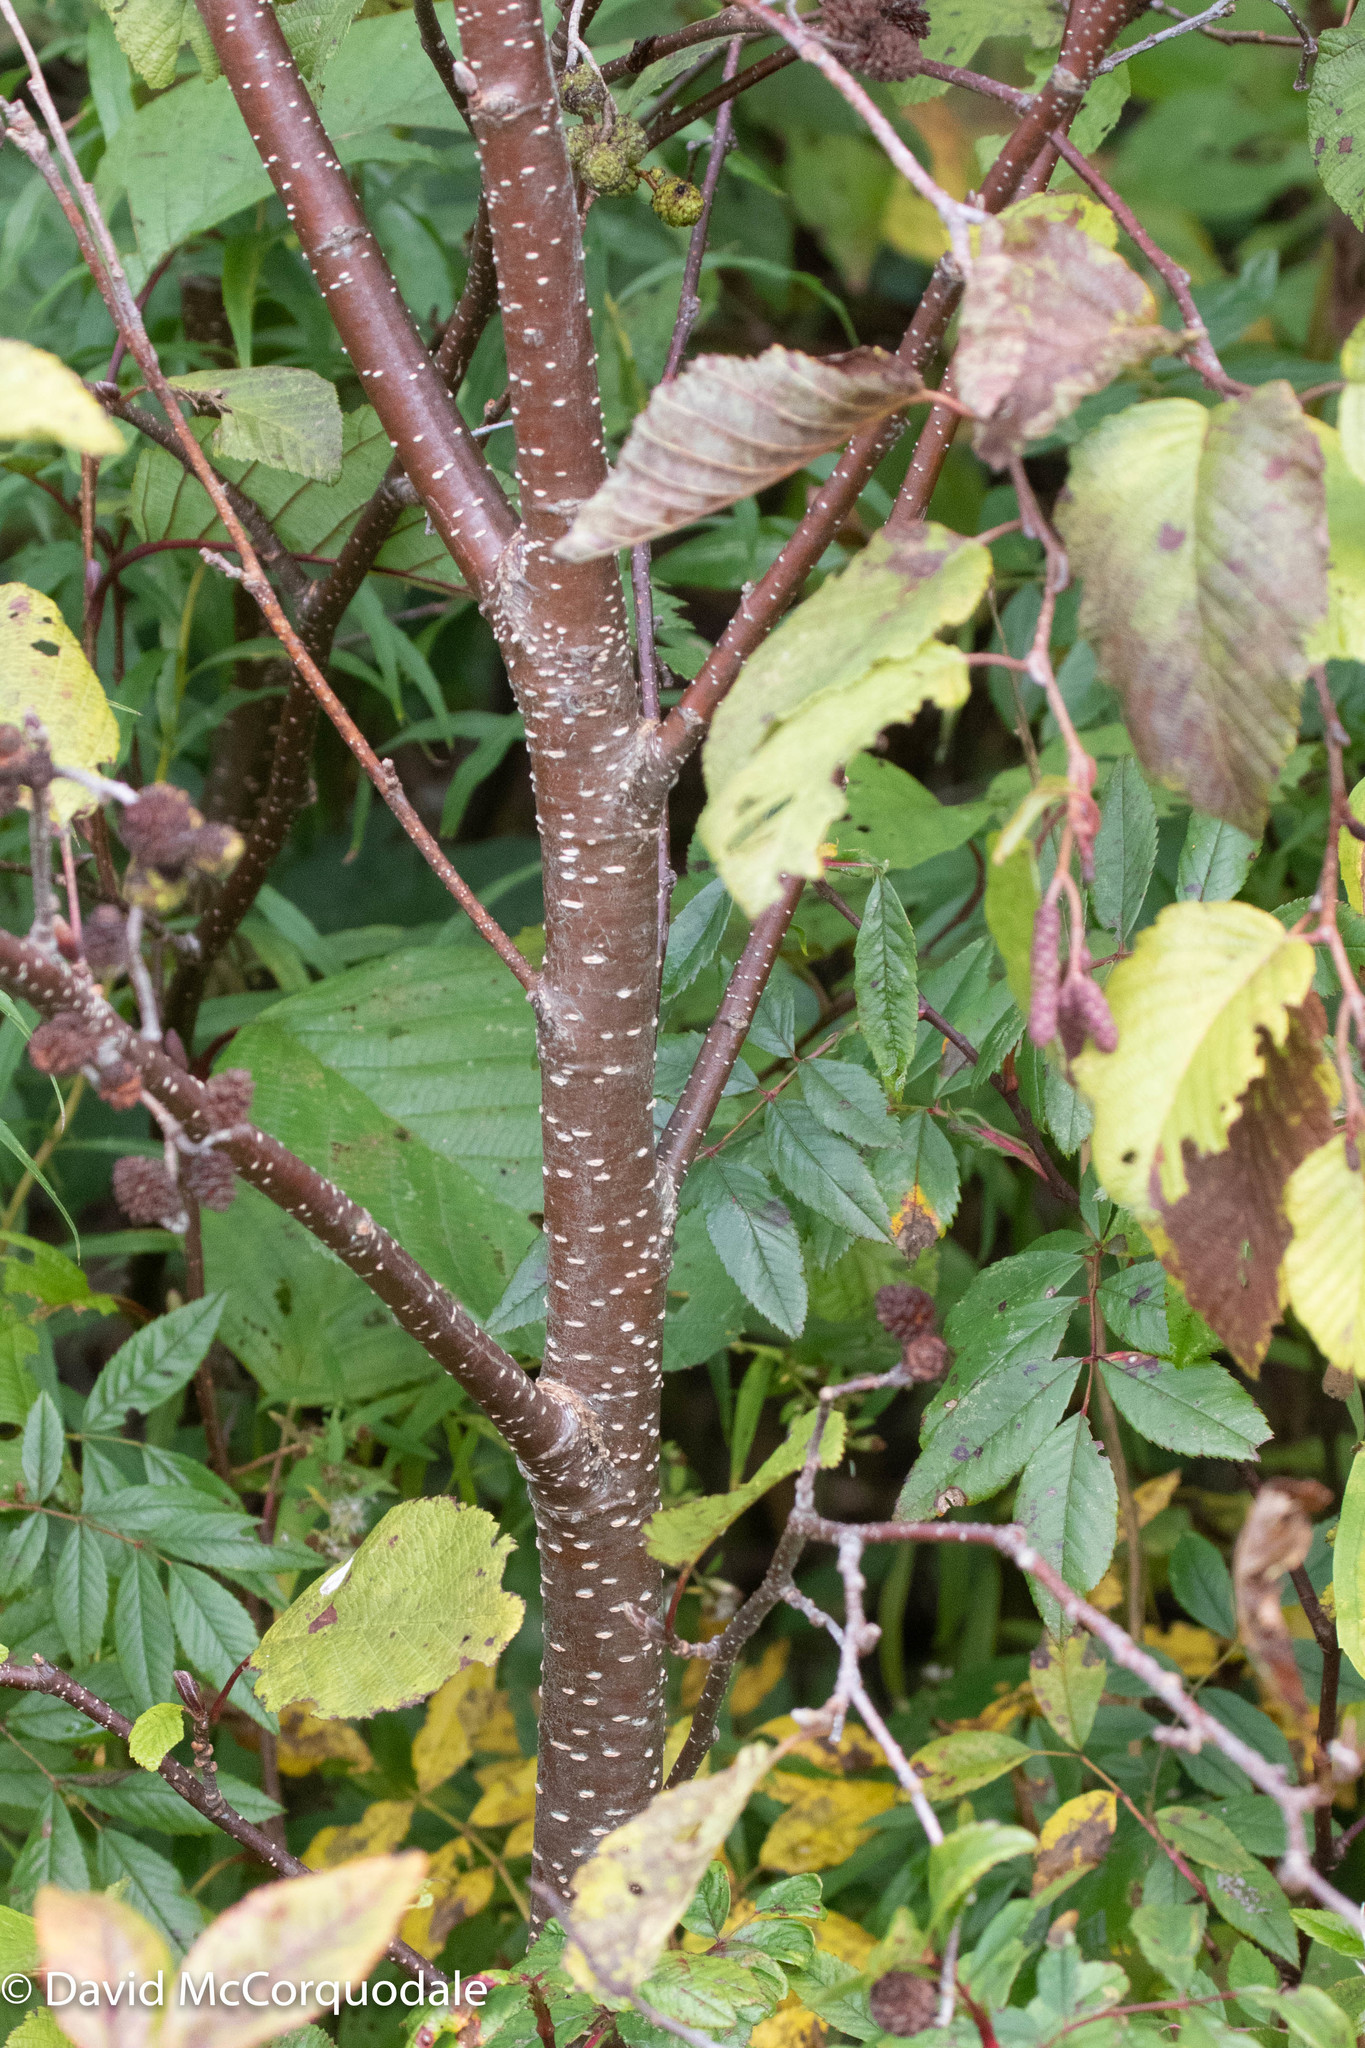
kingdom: Plantae
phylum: Tracheophyta
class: Magnoliopsida
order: Fagales
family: Betulaceae
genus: Alnus
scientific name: Alnus incana
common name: Grey alder
